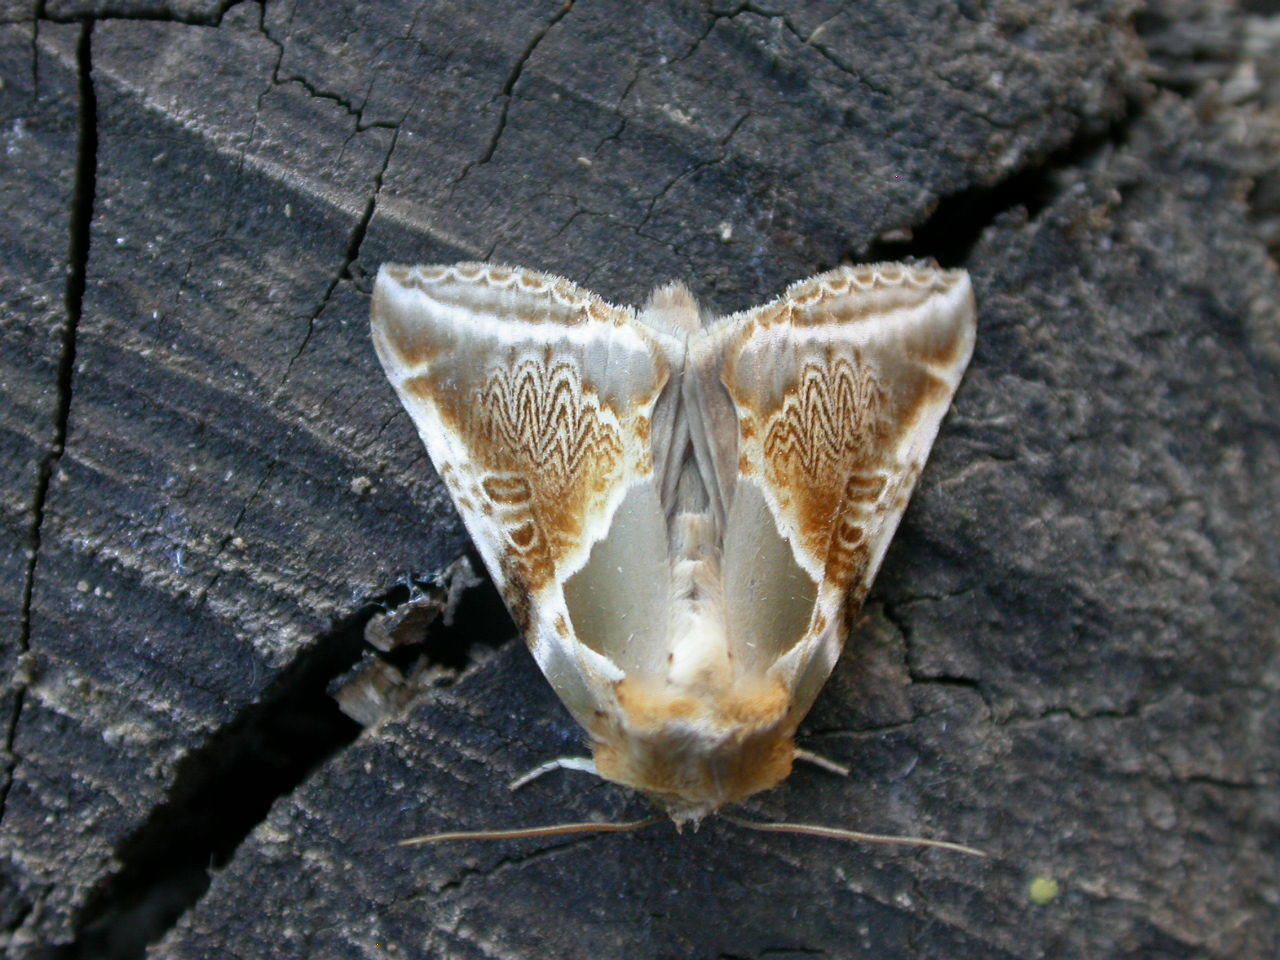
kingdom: Animalia
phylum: Arthropoda
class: Insecta
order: Lepidoptera
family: Drepanidae
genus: Habrosyne
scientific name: Habrosyne pyritoides
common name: Buff arches
